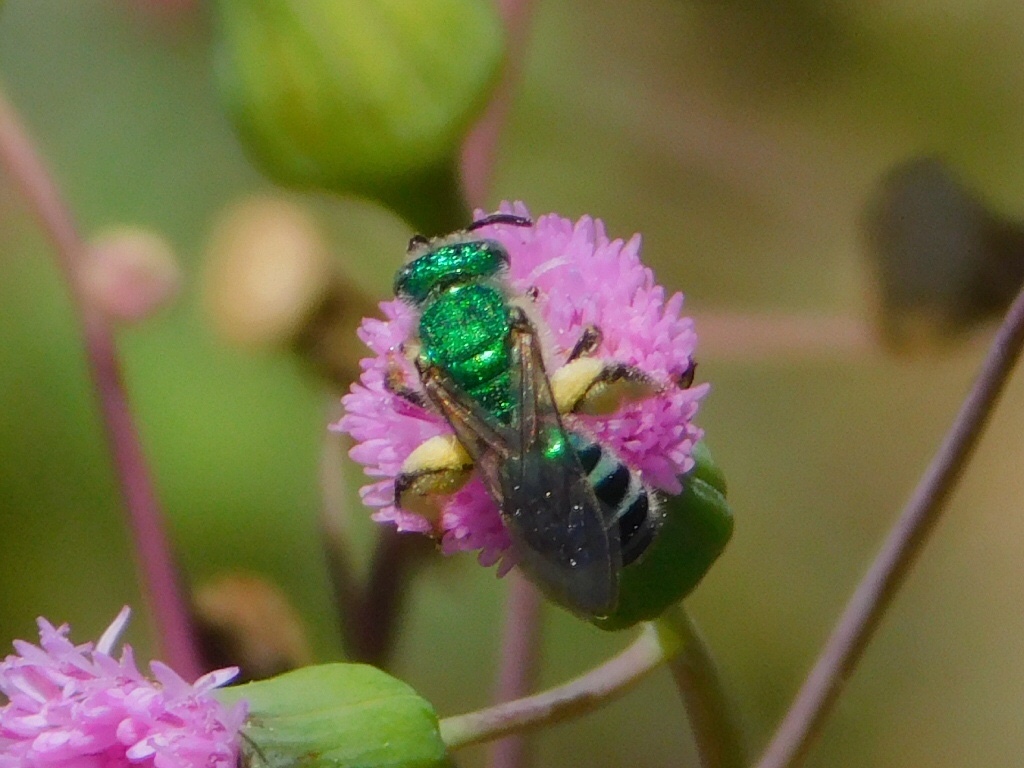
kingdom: Animalia
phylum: Arthropoda
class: Insecta
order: Hymenoptera
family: Halictidae
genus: Agapostemon
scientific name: Agapostemon poeyi
